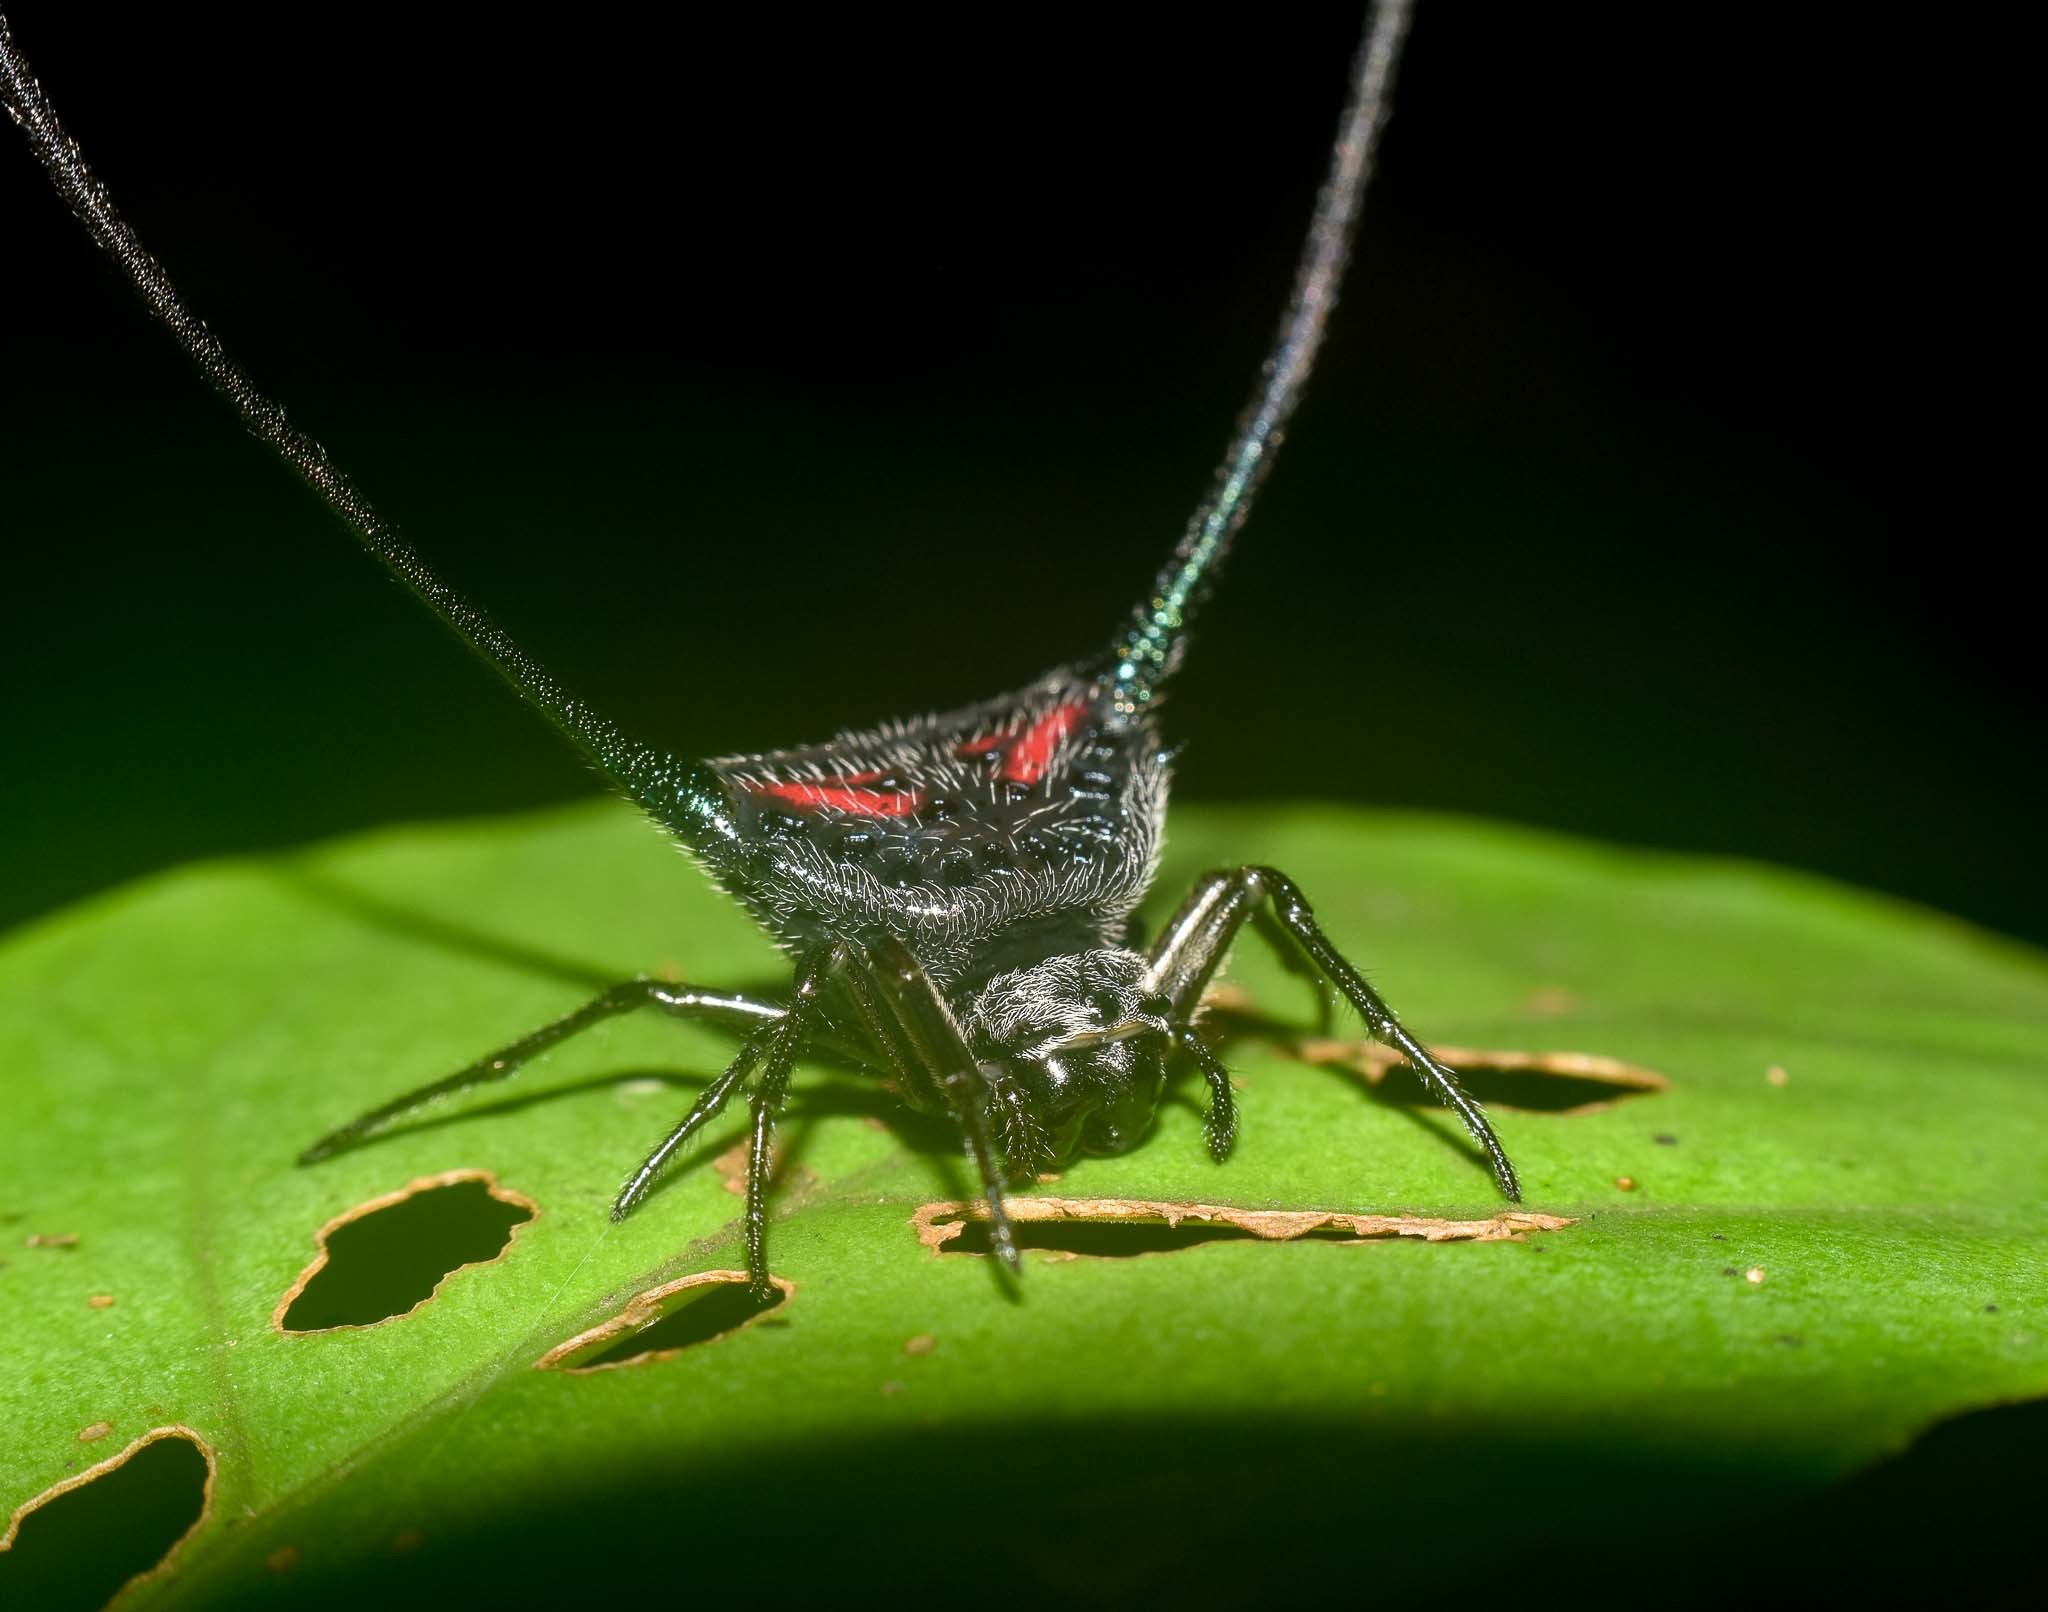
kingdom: Animalia
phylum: Arthropoda
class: Arachnida
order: Araneae
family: Araneidae
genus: Macracantha
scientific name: Macracantha arcuata
